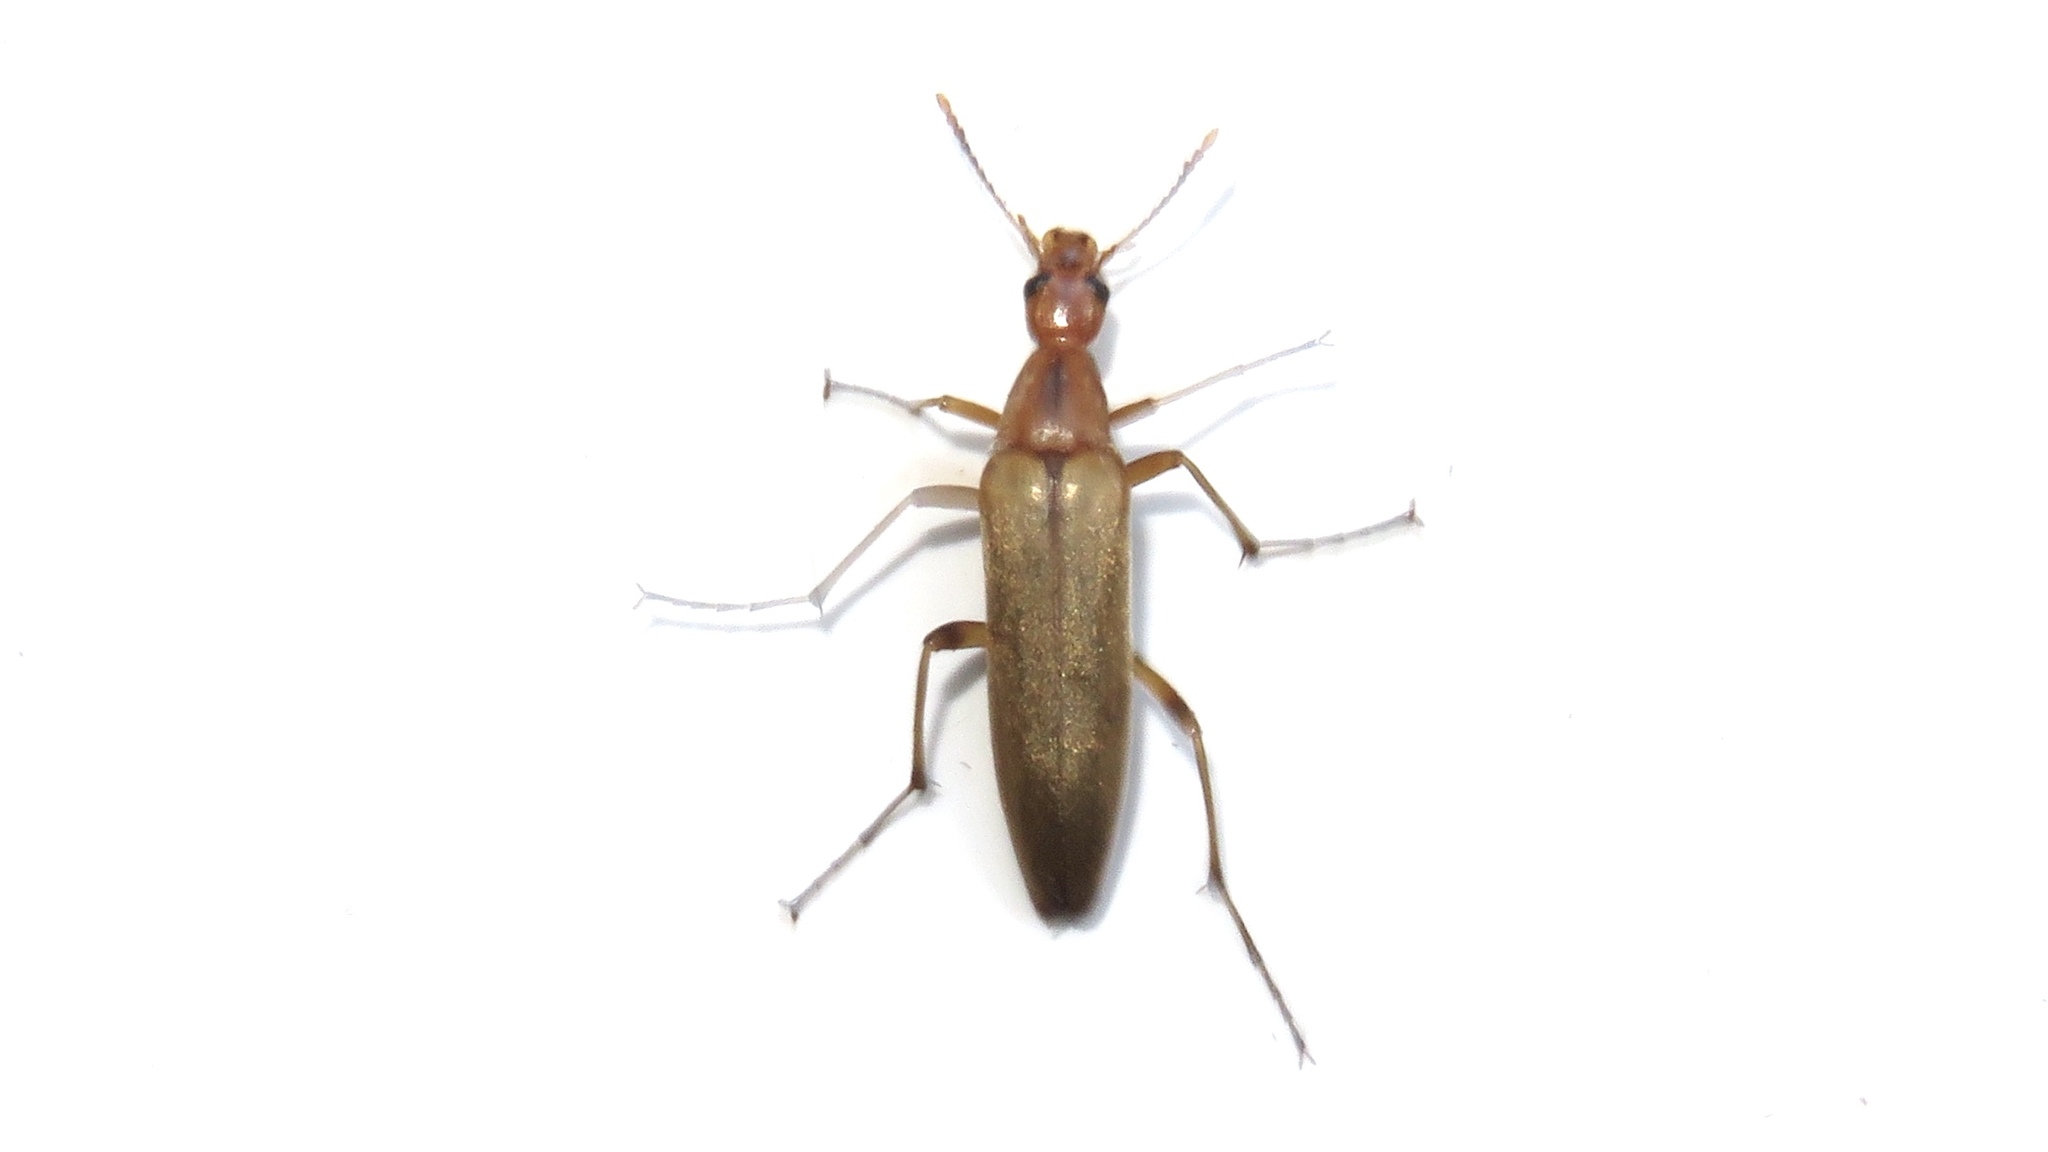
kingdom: Animalia
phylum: Arthropoda
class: Insecta
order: Coleoptera
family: Stenotrachelidae
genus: Cephaloon
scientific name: Cephaloon lepturides
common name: False leptura beetle
